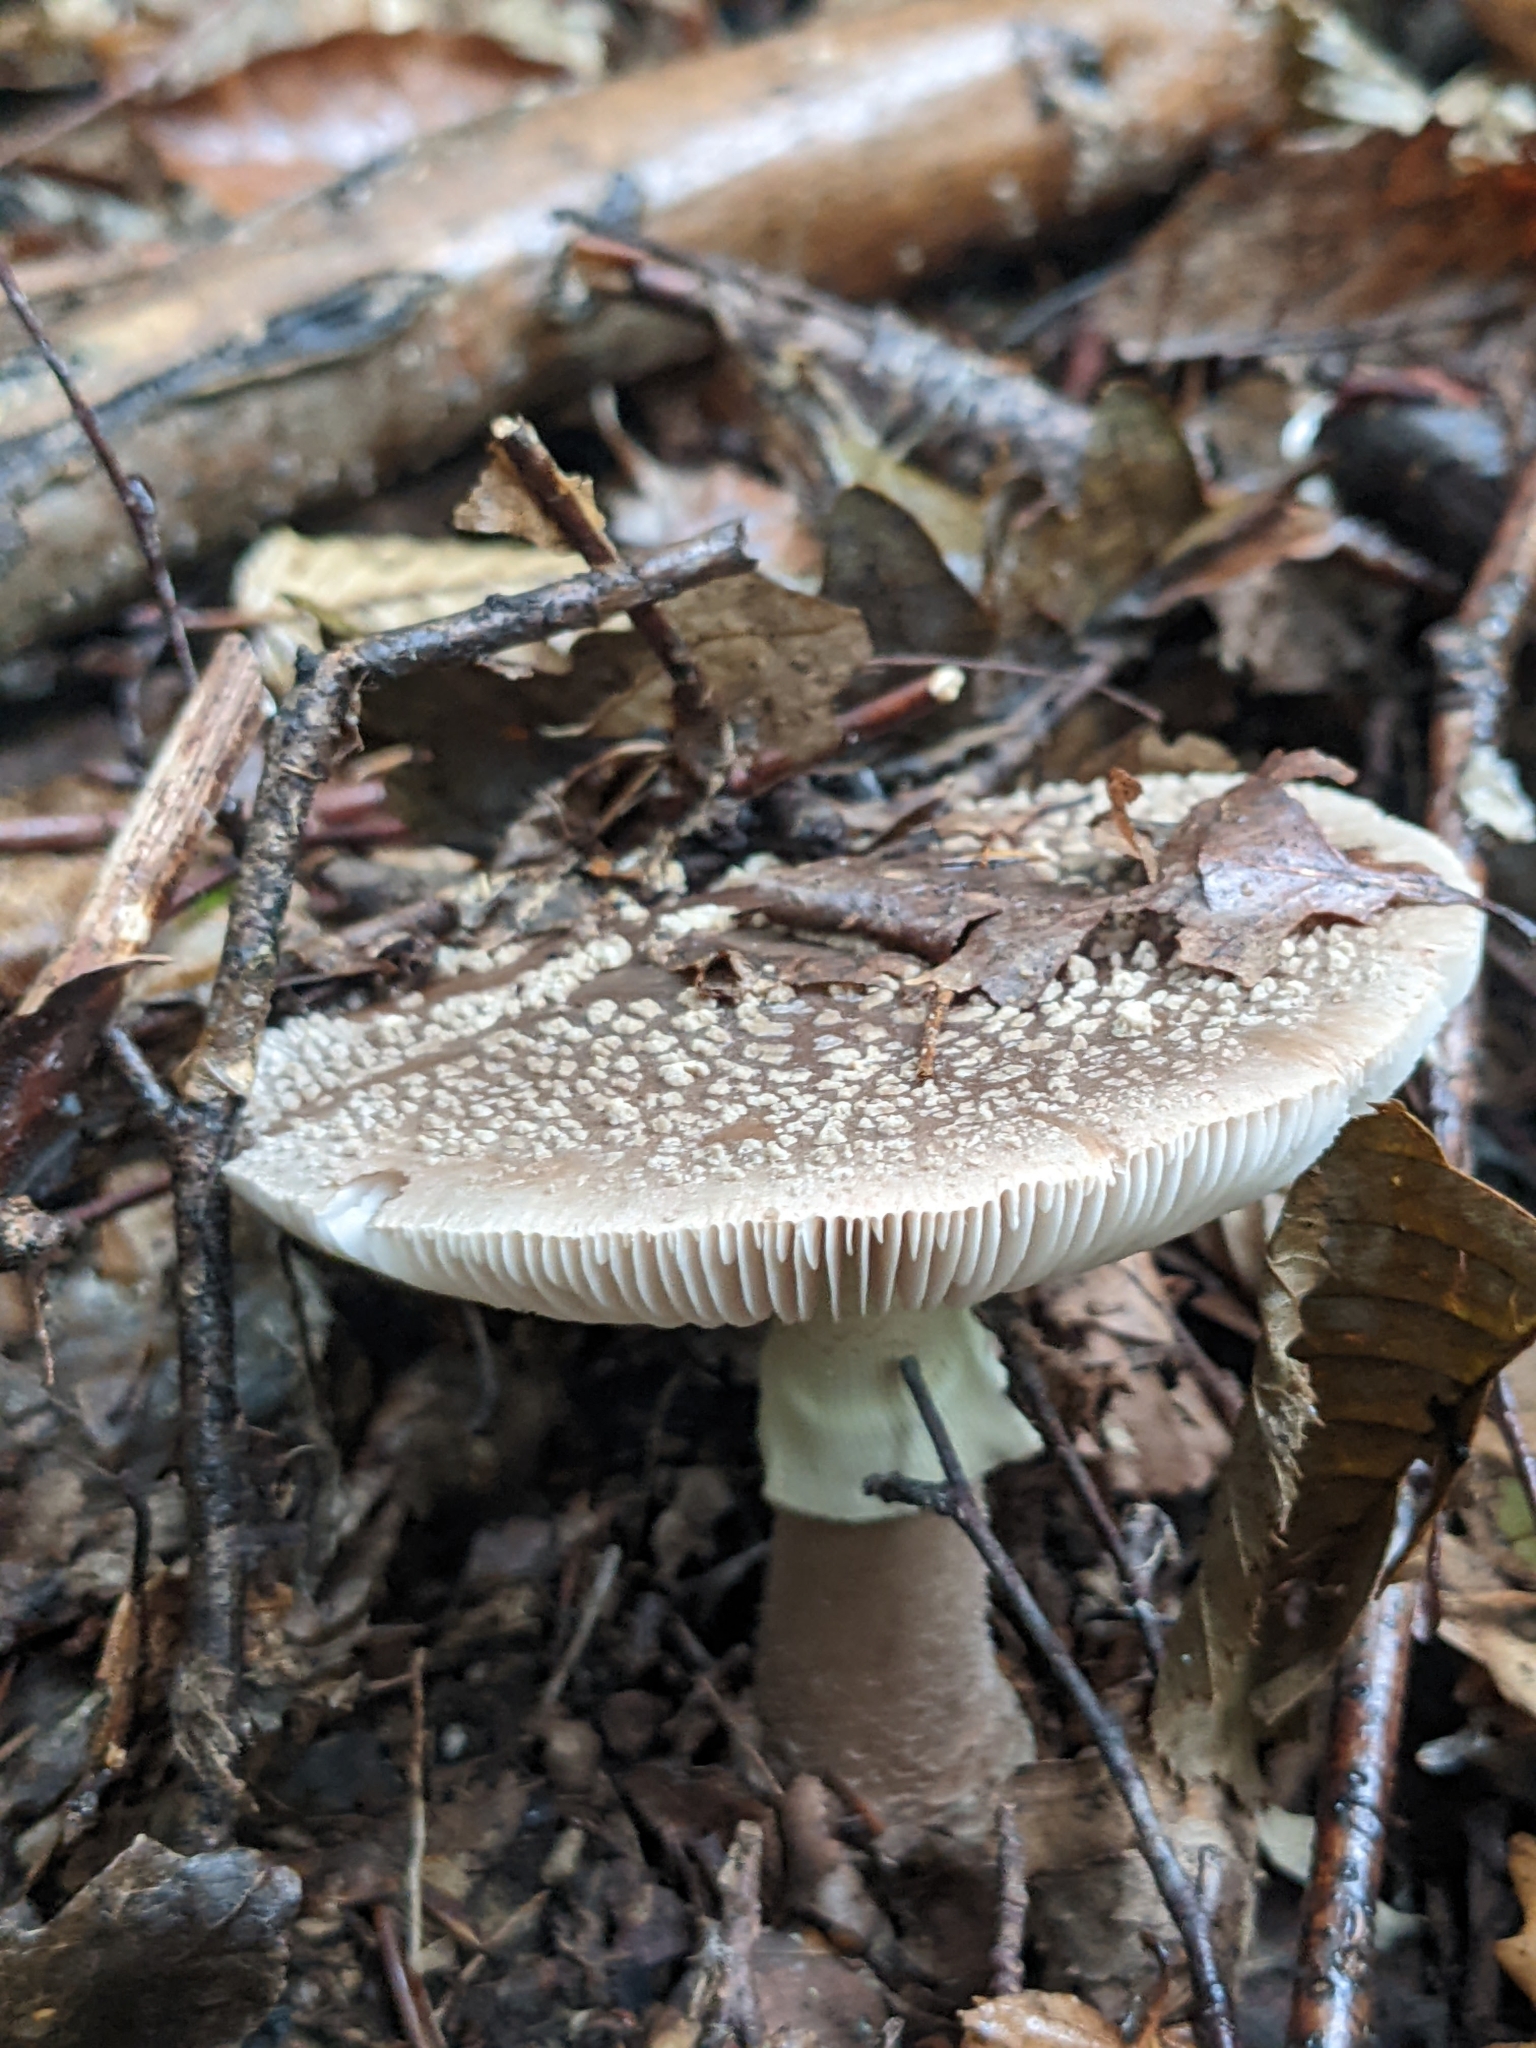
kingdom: Fungi
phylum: Basidiomycota
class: Agaricomycetes
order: Agaricales
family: Amanitaceae
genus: Amanita
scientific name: Amanita rubescens
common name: Blusher
